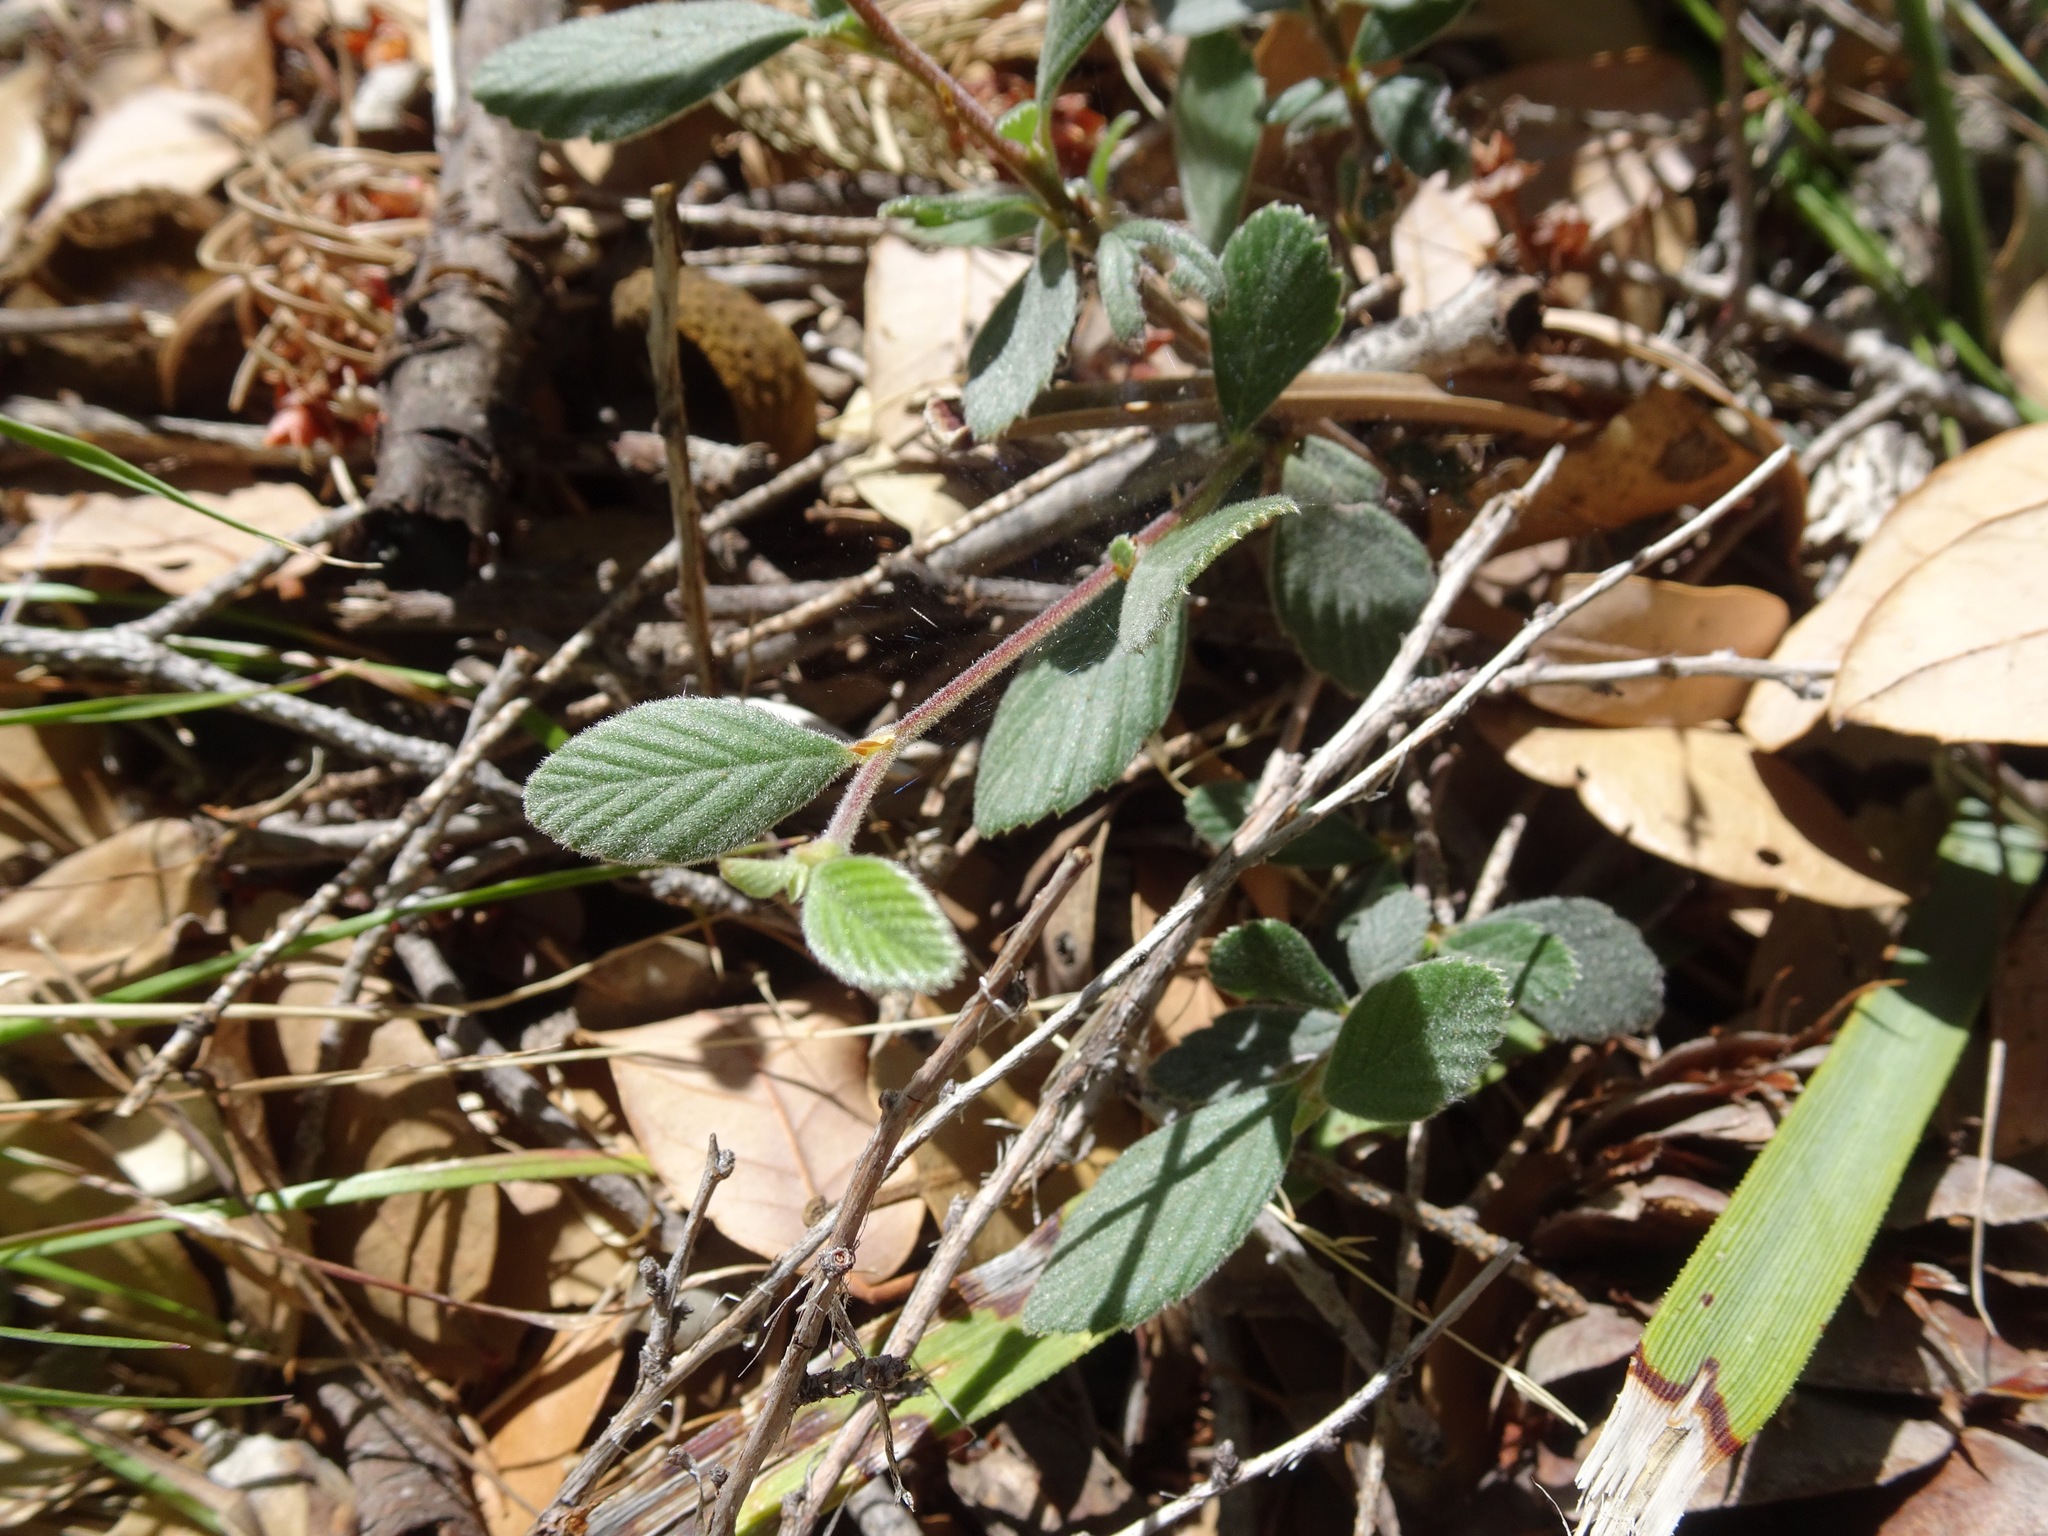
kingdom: Plantae
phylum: Tracheophyta
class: Magnoliopsida
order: Rosales
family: Rosaceae
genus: Cercocarpus
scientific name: Cercocarpus betuloides
